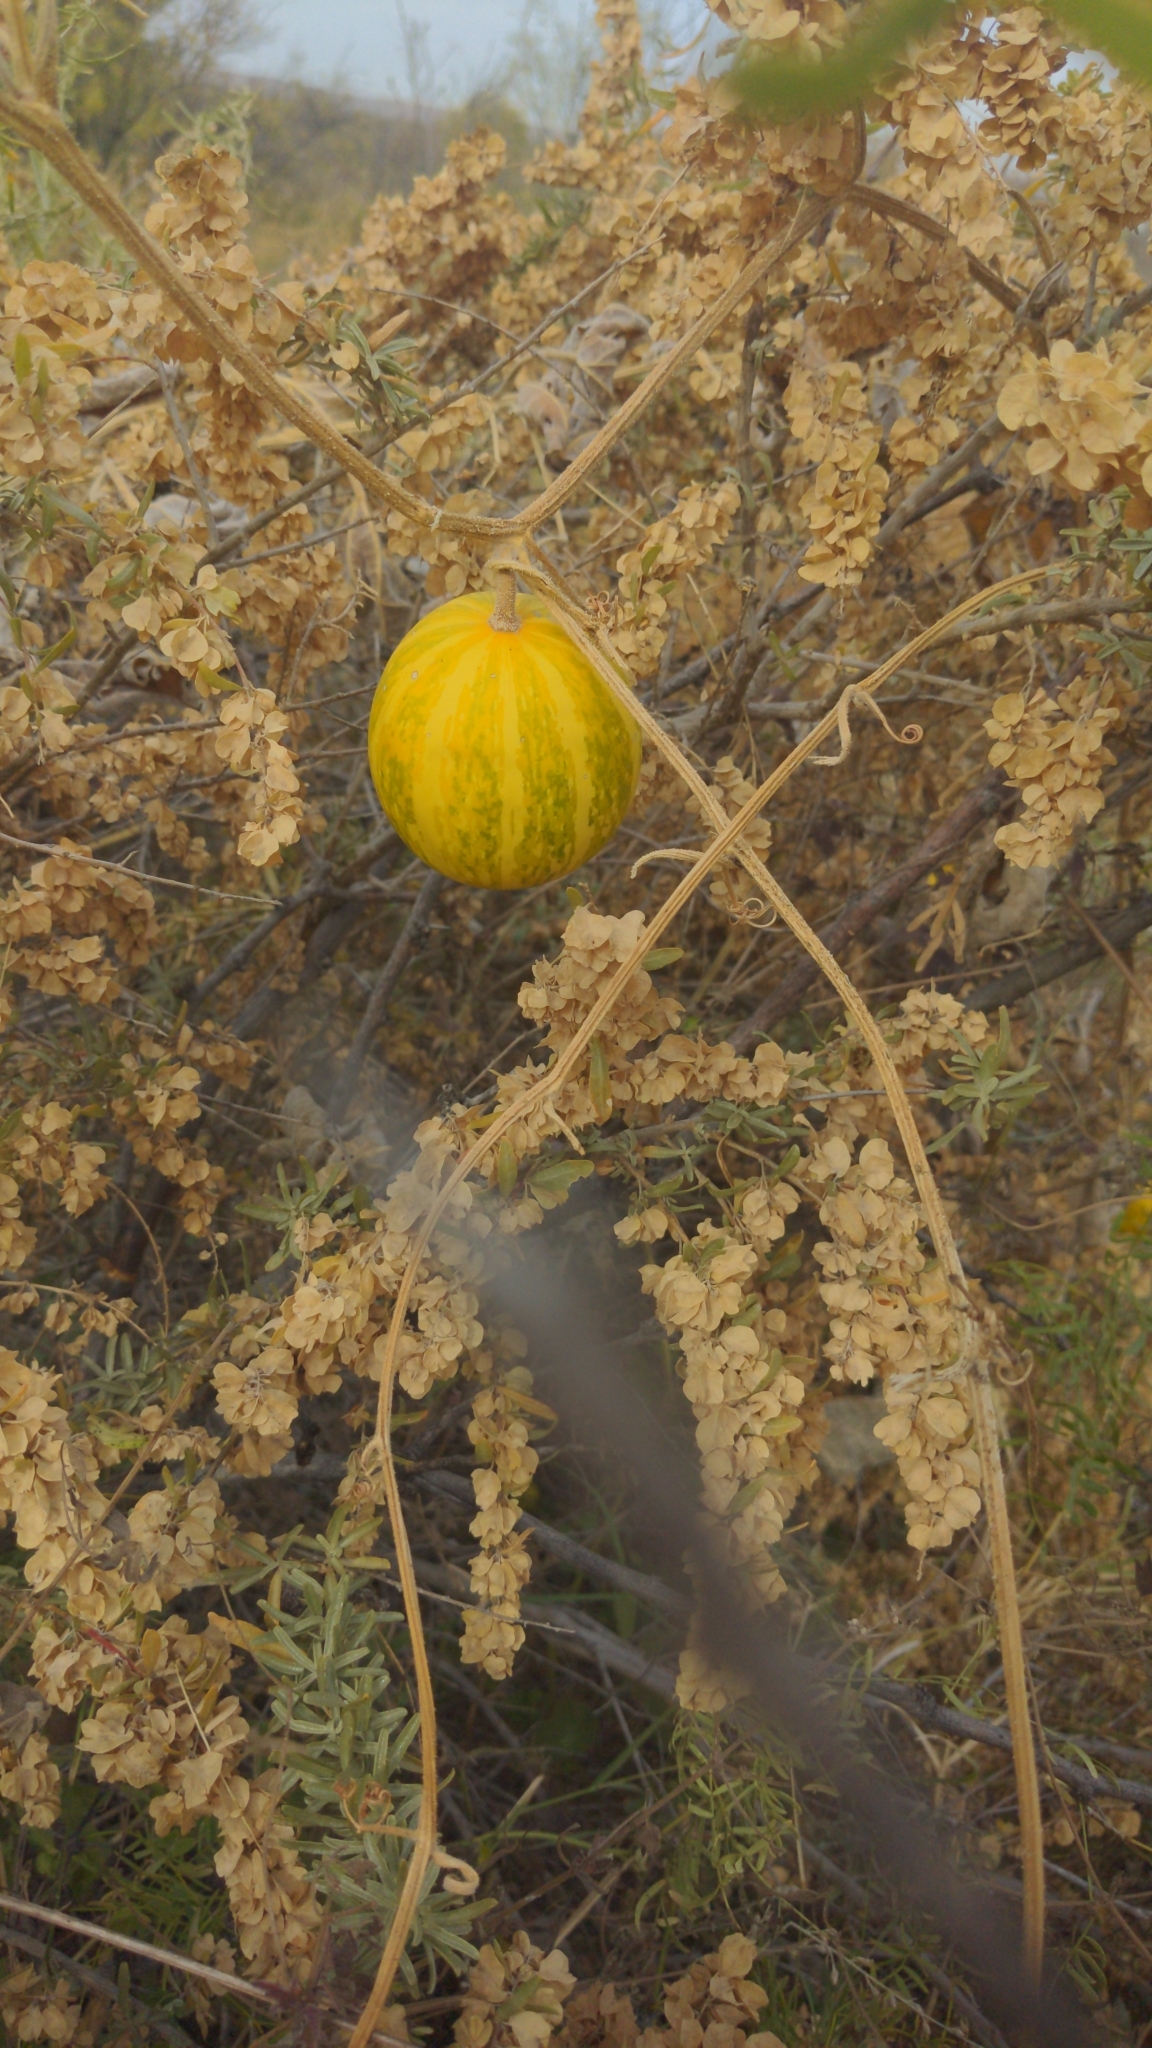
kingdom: Plantae
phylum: Tracheophyta
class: Magnoliopsida
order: Cucurbitales
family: Cucurbitaceae
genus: Cucurbita
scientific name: Cucurbita foetidissima
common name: Buffalo gourd
